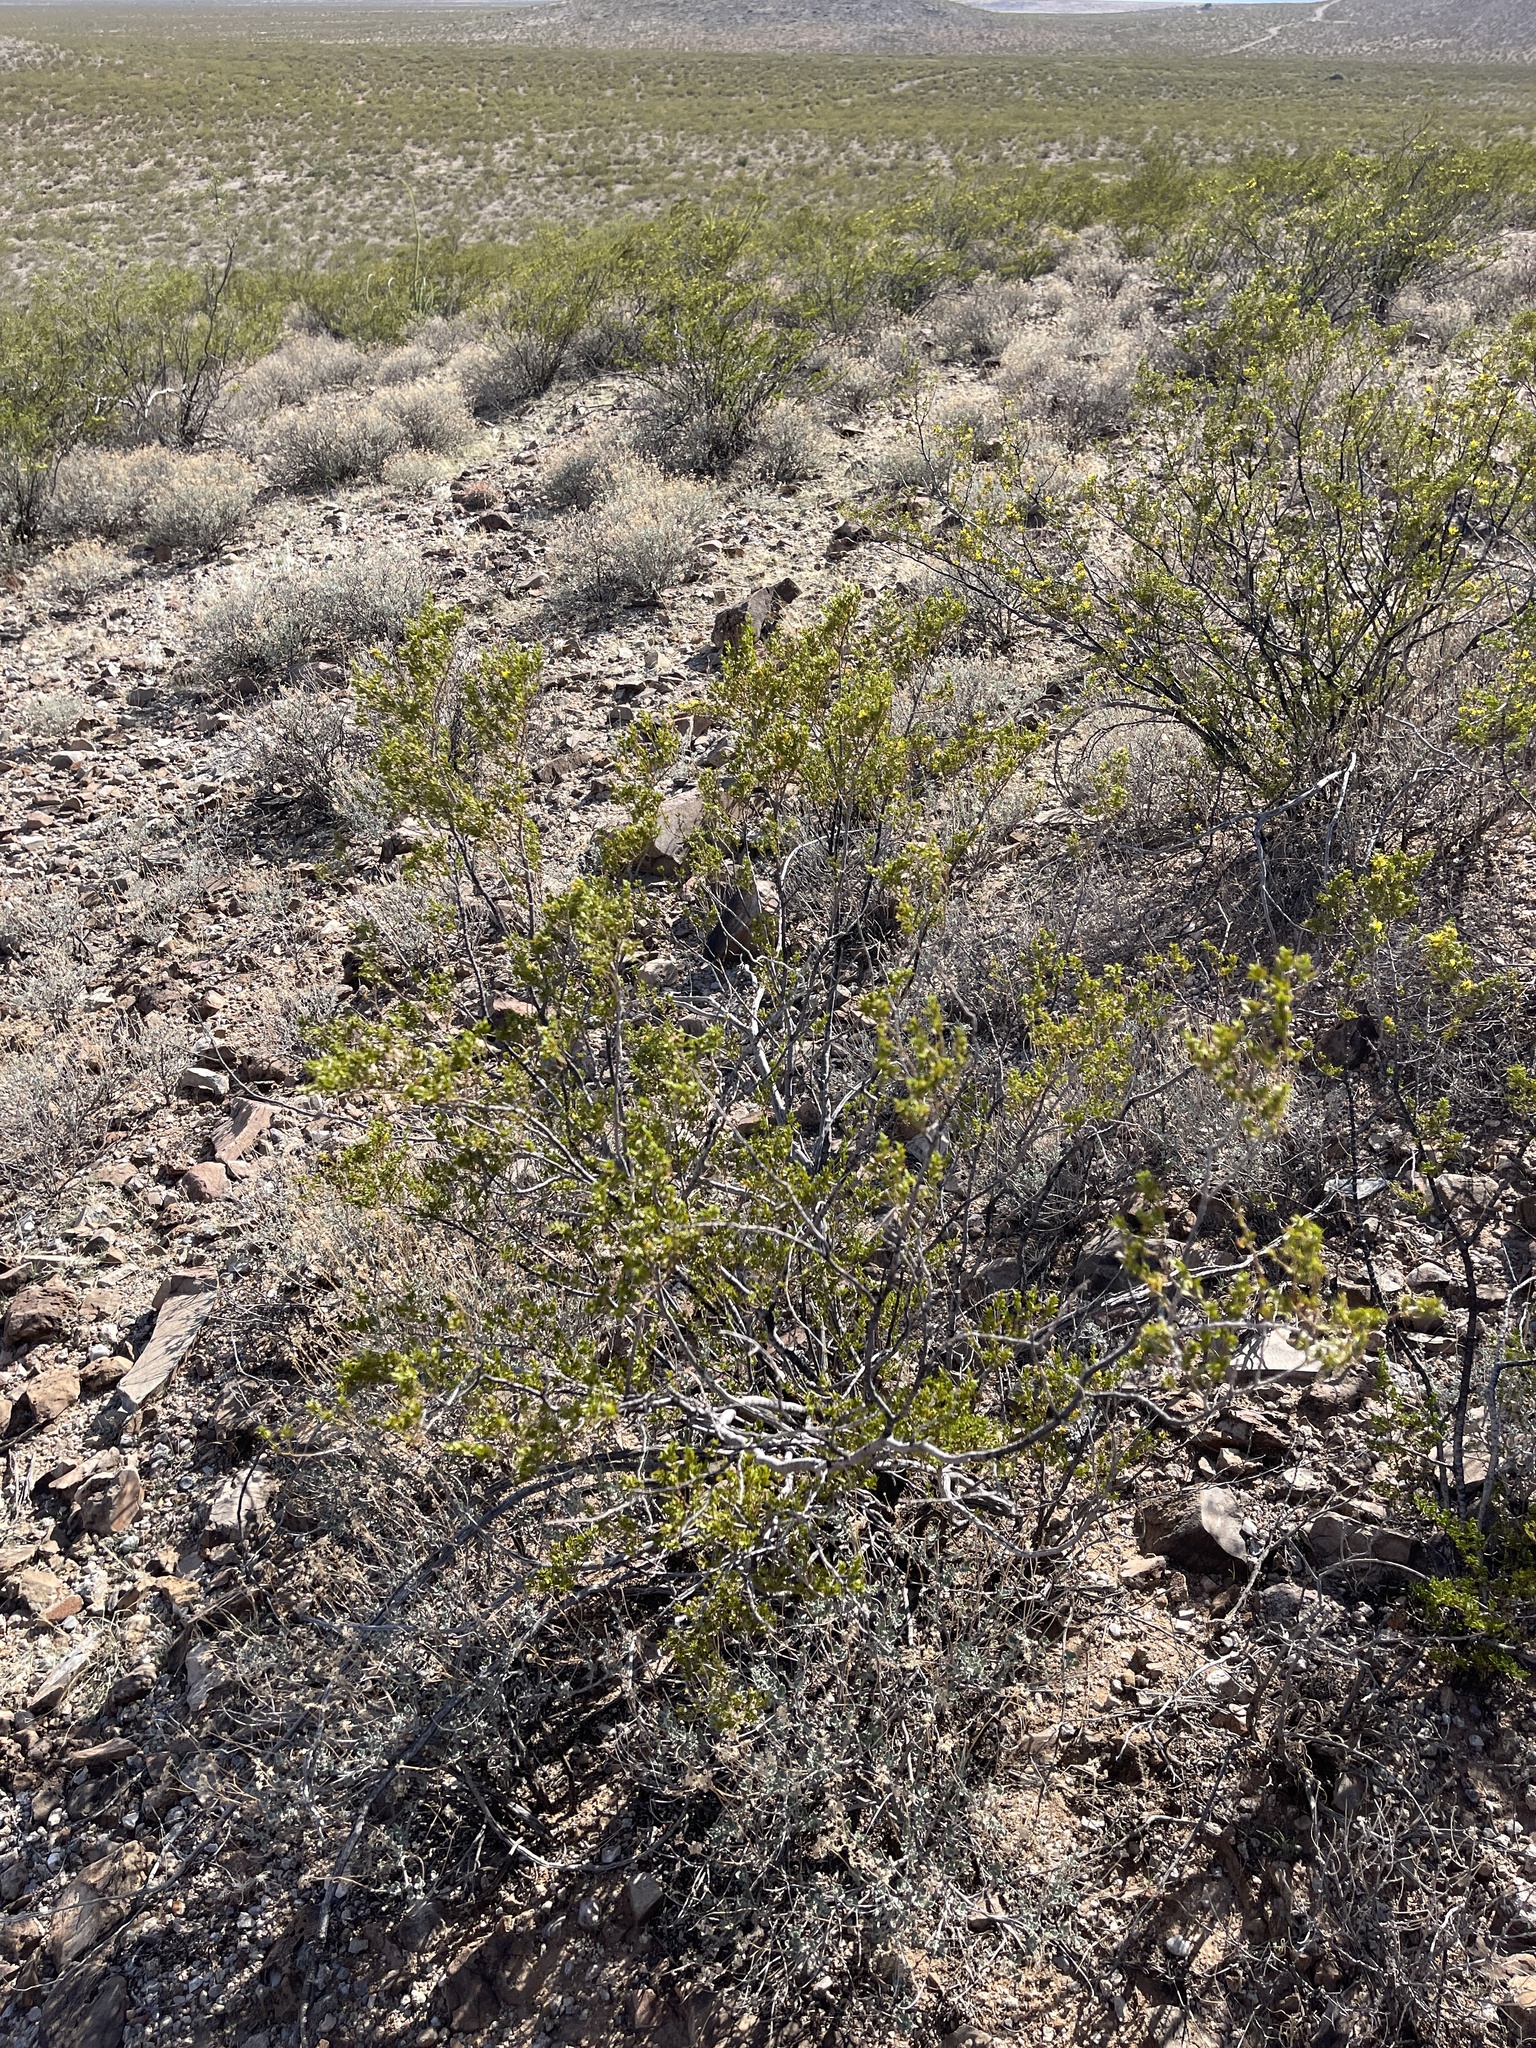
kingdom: Plantae
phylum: Tracheophyta
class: Magnoliopsida
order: Zygophyllales
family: Zygophyllaceae
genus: Larrea
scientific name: Larrea tridentata
